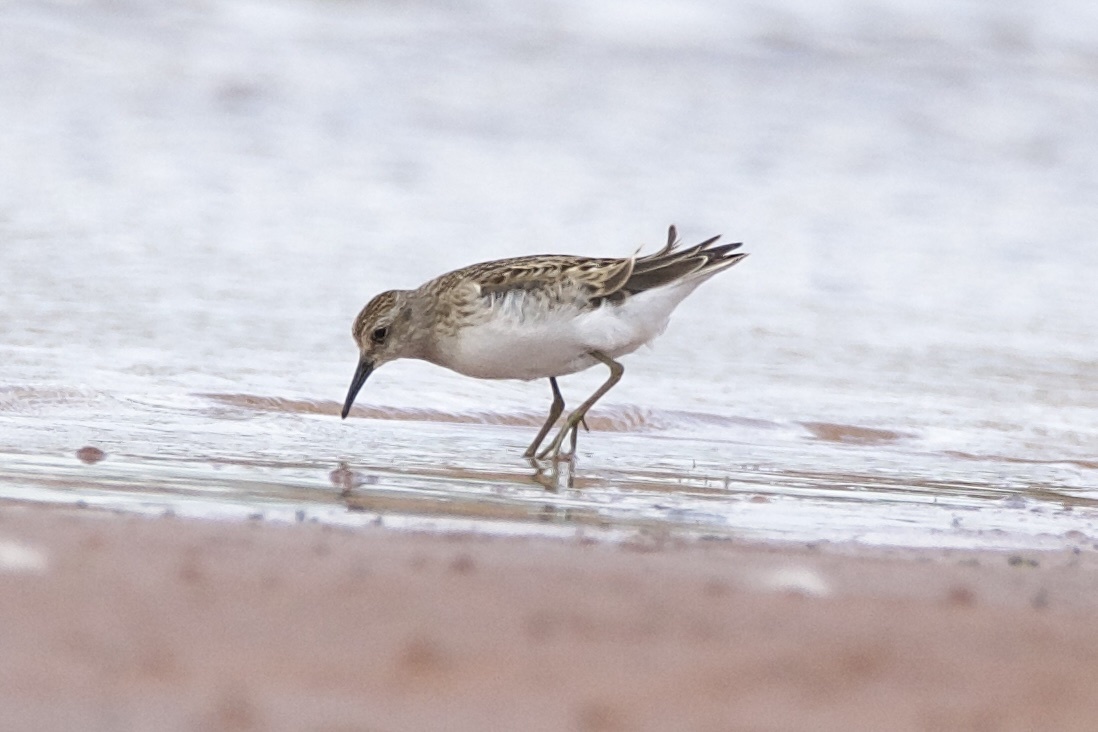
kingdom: Animalia
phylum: Chordata
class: Aves
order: Charadriiformes
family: Scolopacidae
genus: Calidris
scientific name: Calidris minutilla
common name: Least sandpiper
